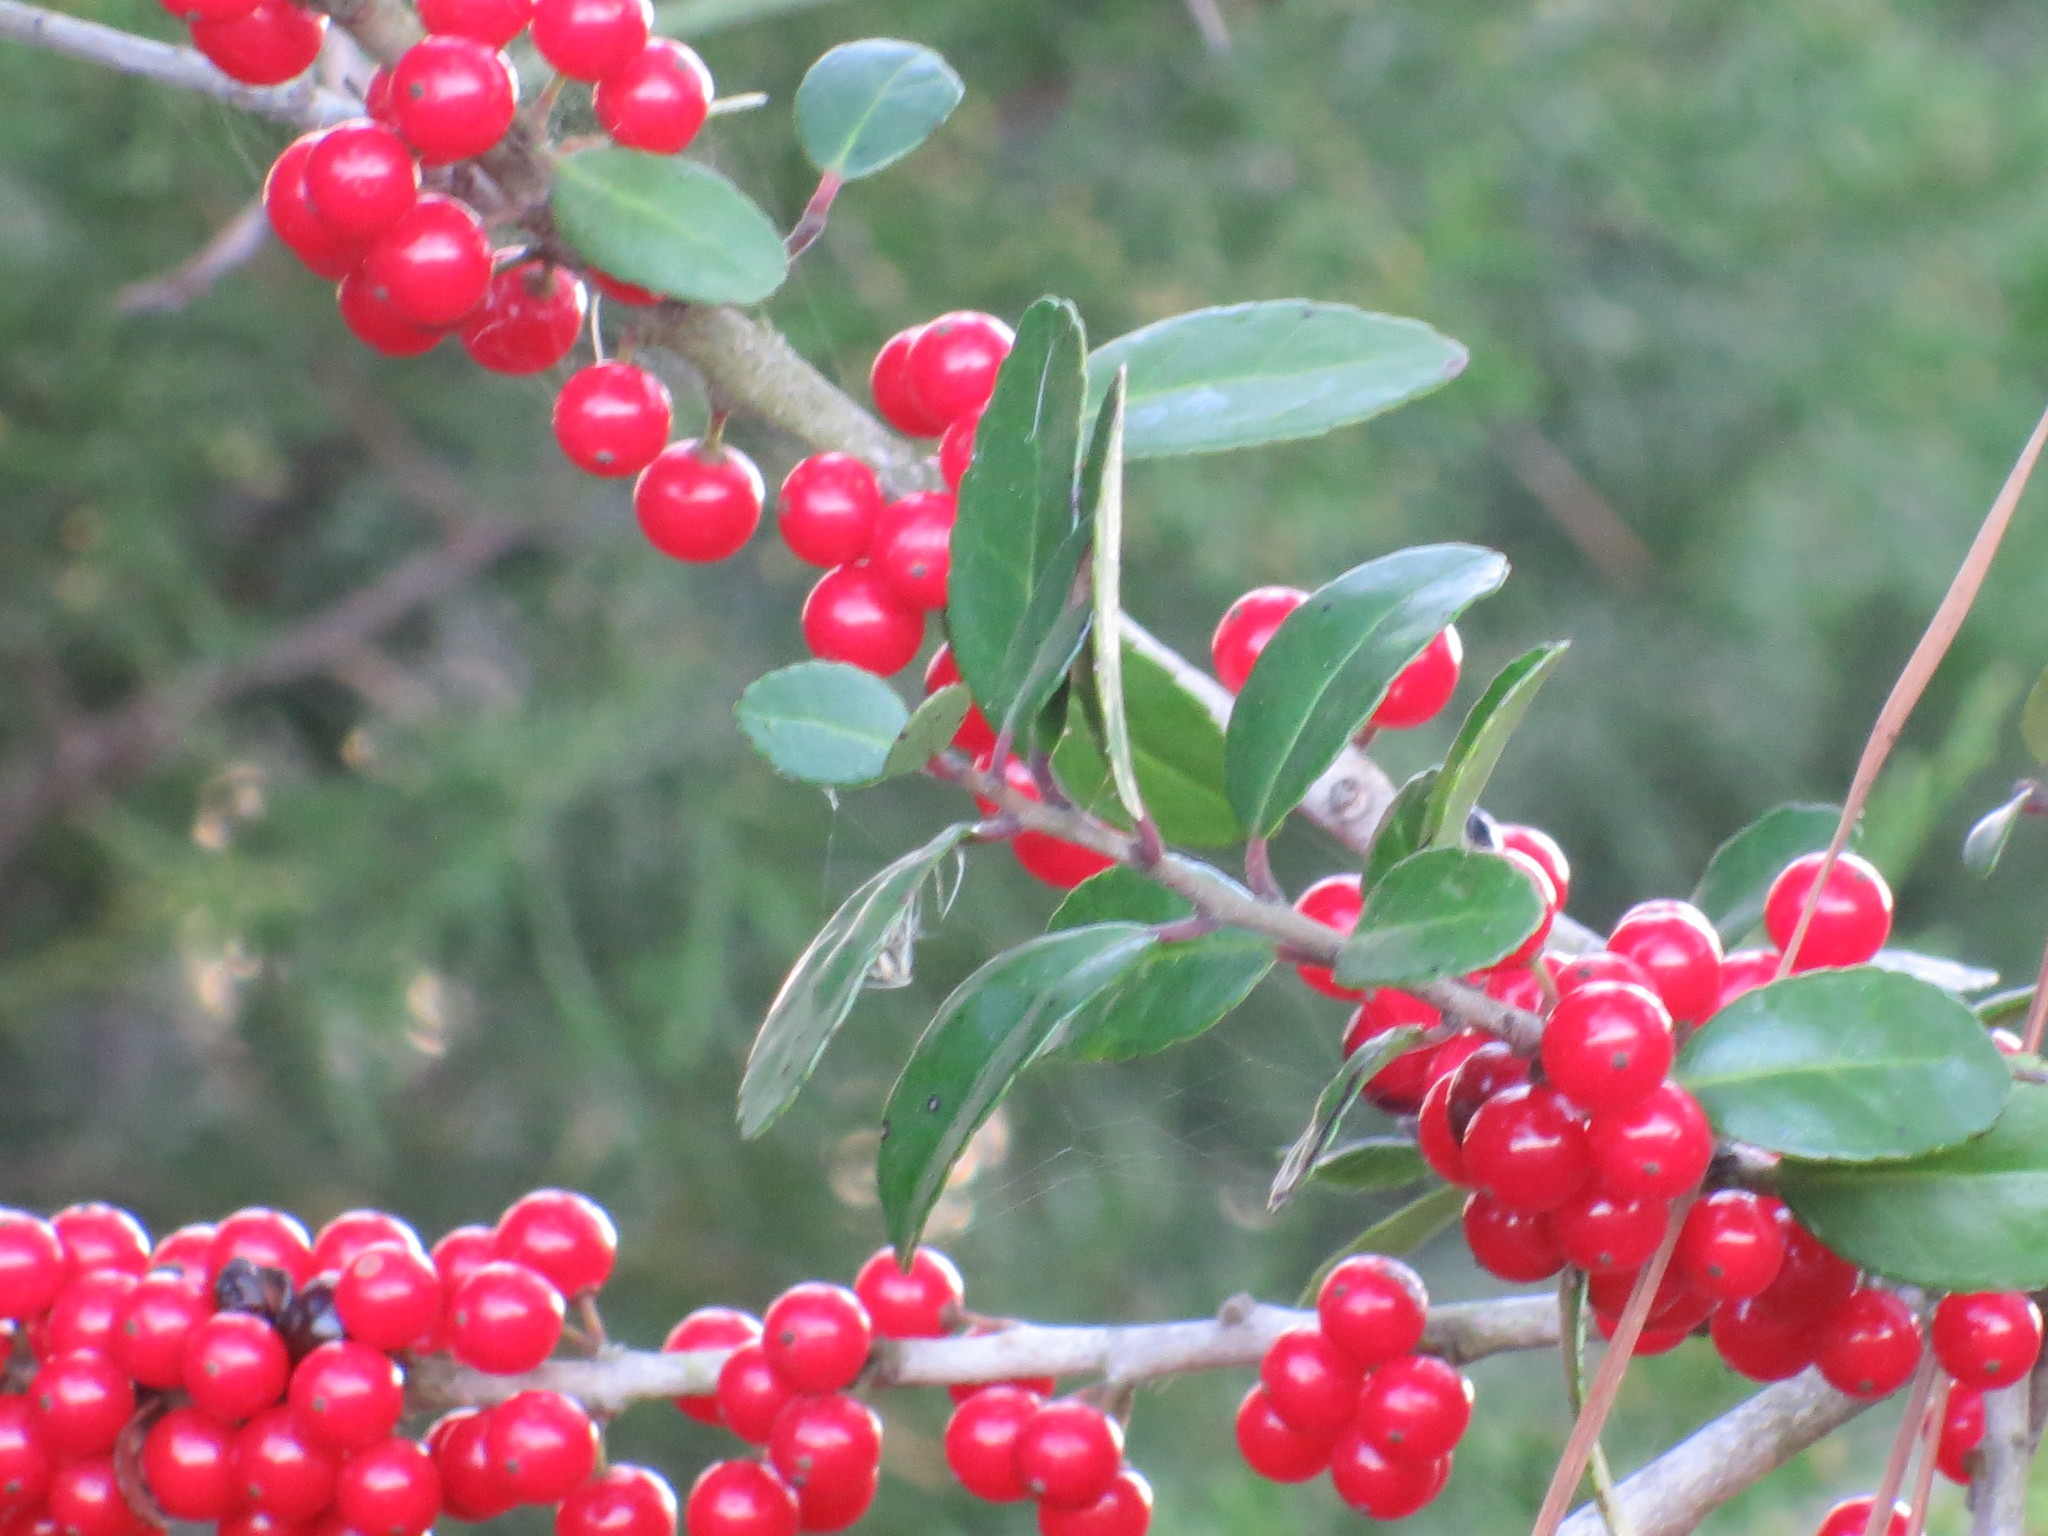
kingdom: Plantae
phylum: Tracheophyta
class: Magnoliopsida
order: Aquifoliales
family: Aquifoliaceae
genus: Ilex
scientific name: Ilex vomitoria
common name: Yaupon holly
